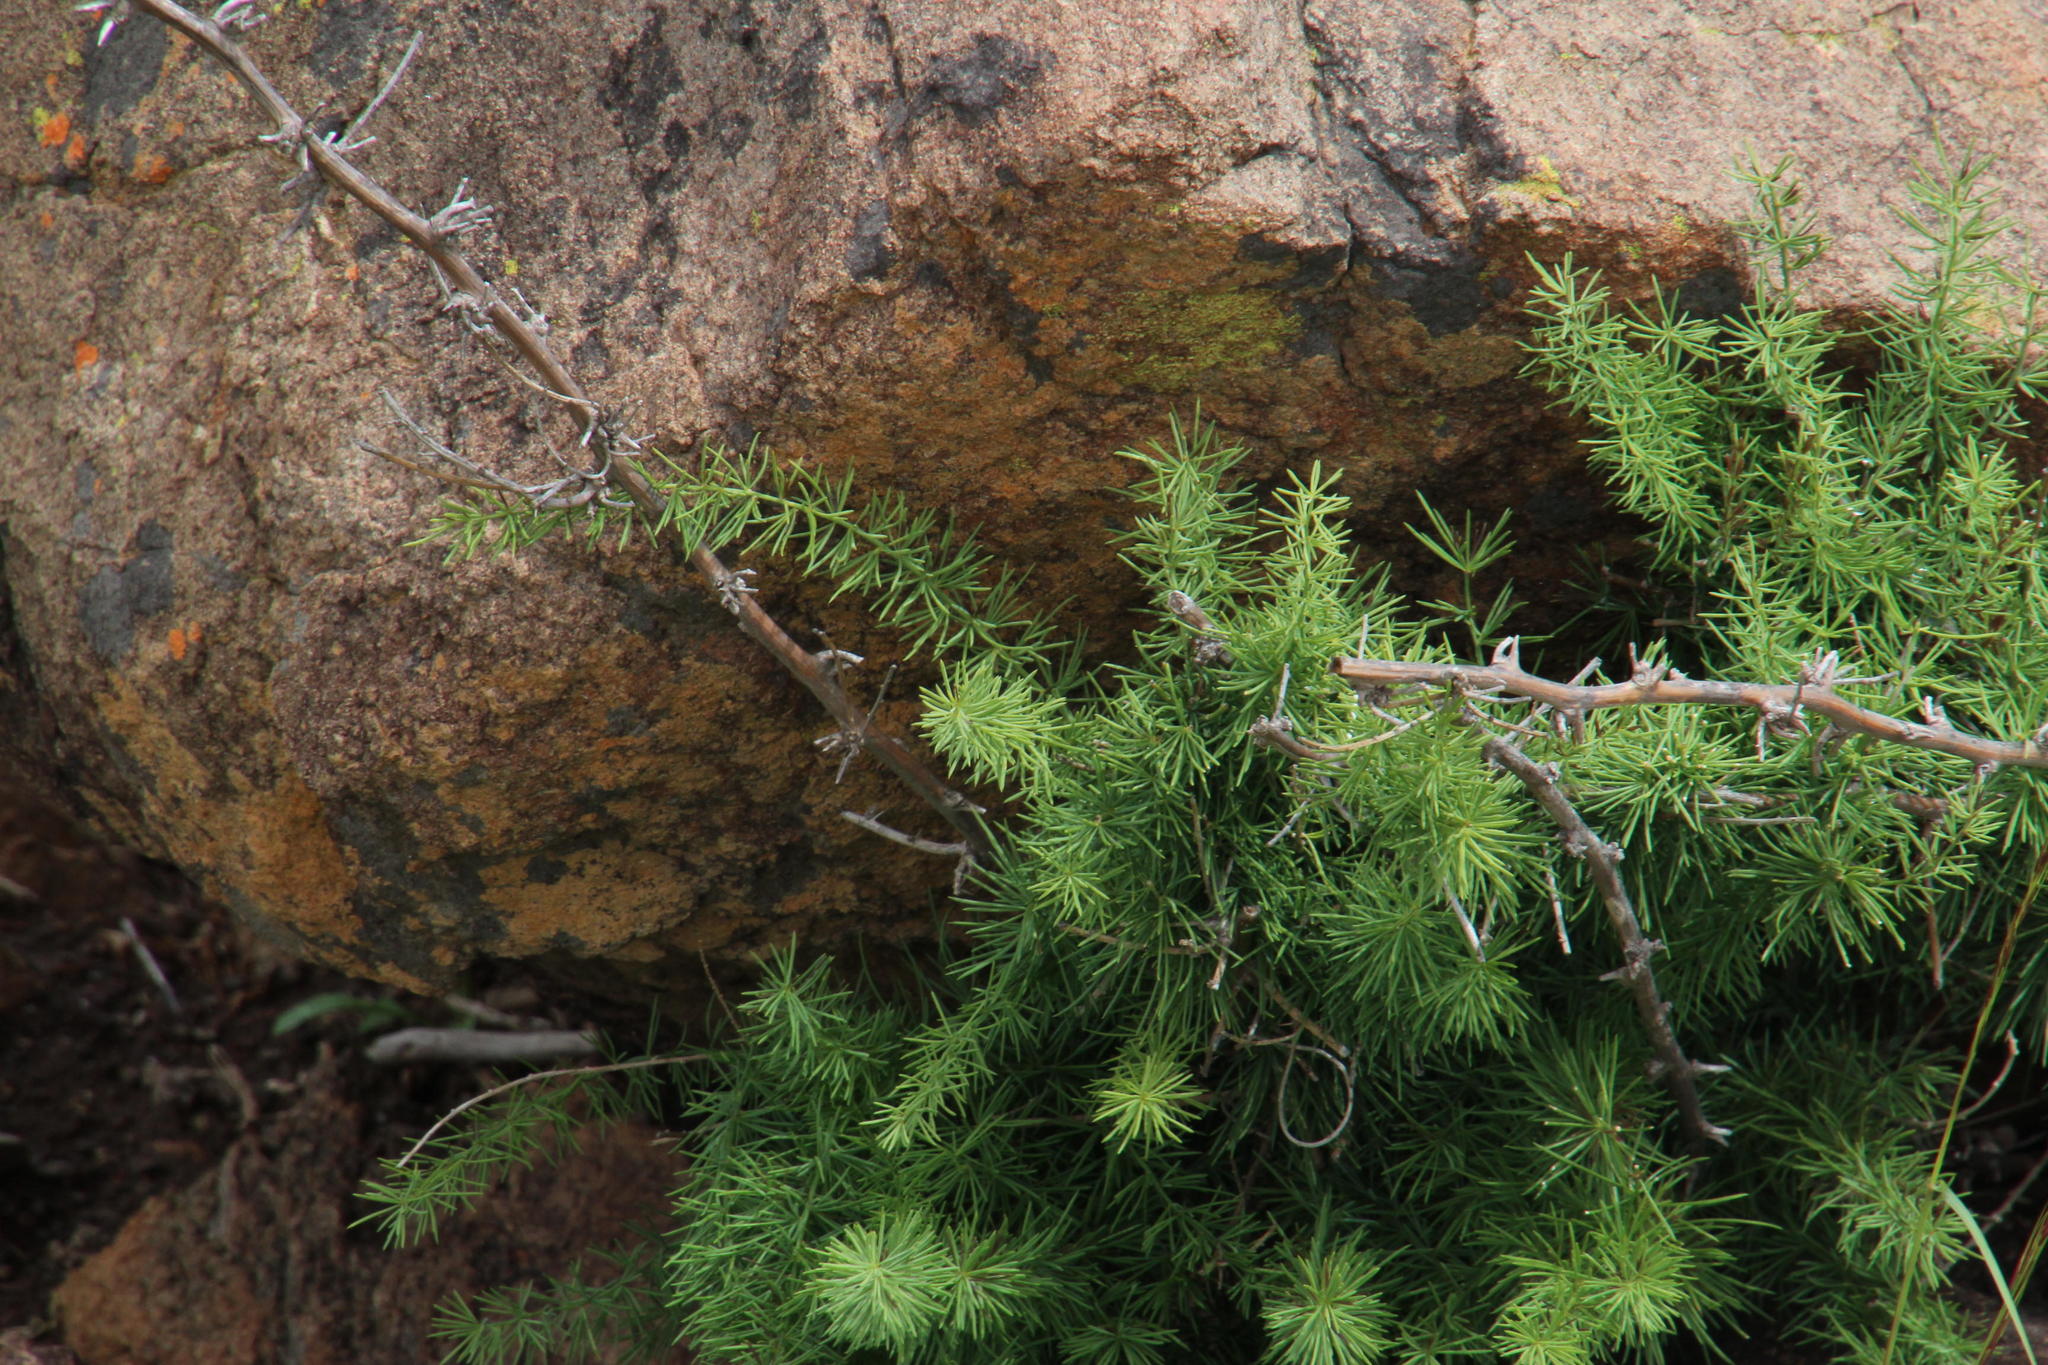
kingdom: Plantae
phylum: Tracheophyta
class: Liliopsida
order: Asparagales
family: Asparagaceae
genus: Asparagus
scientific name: Asparagus aethiopicus
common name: Sprenger's asparagus fern
